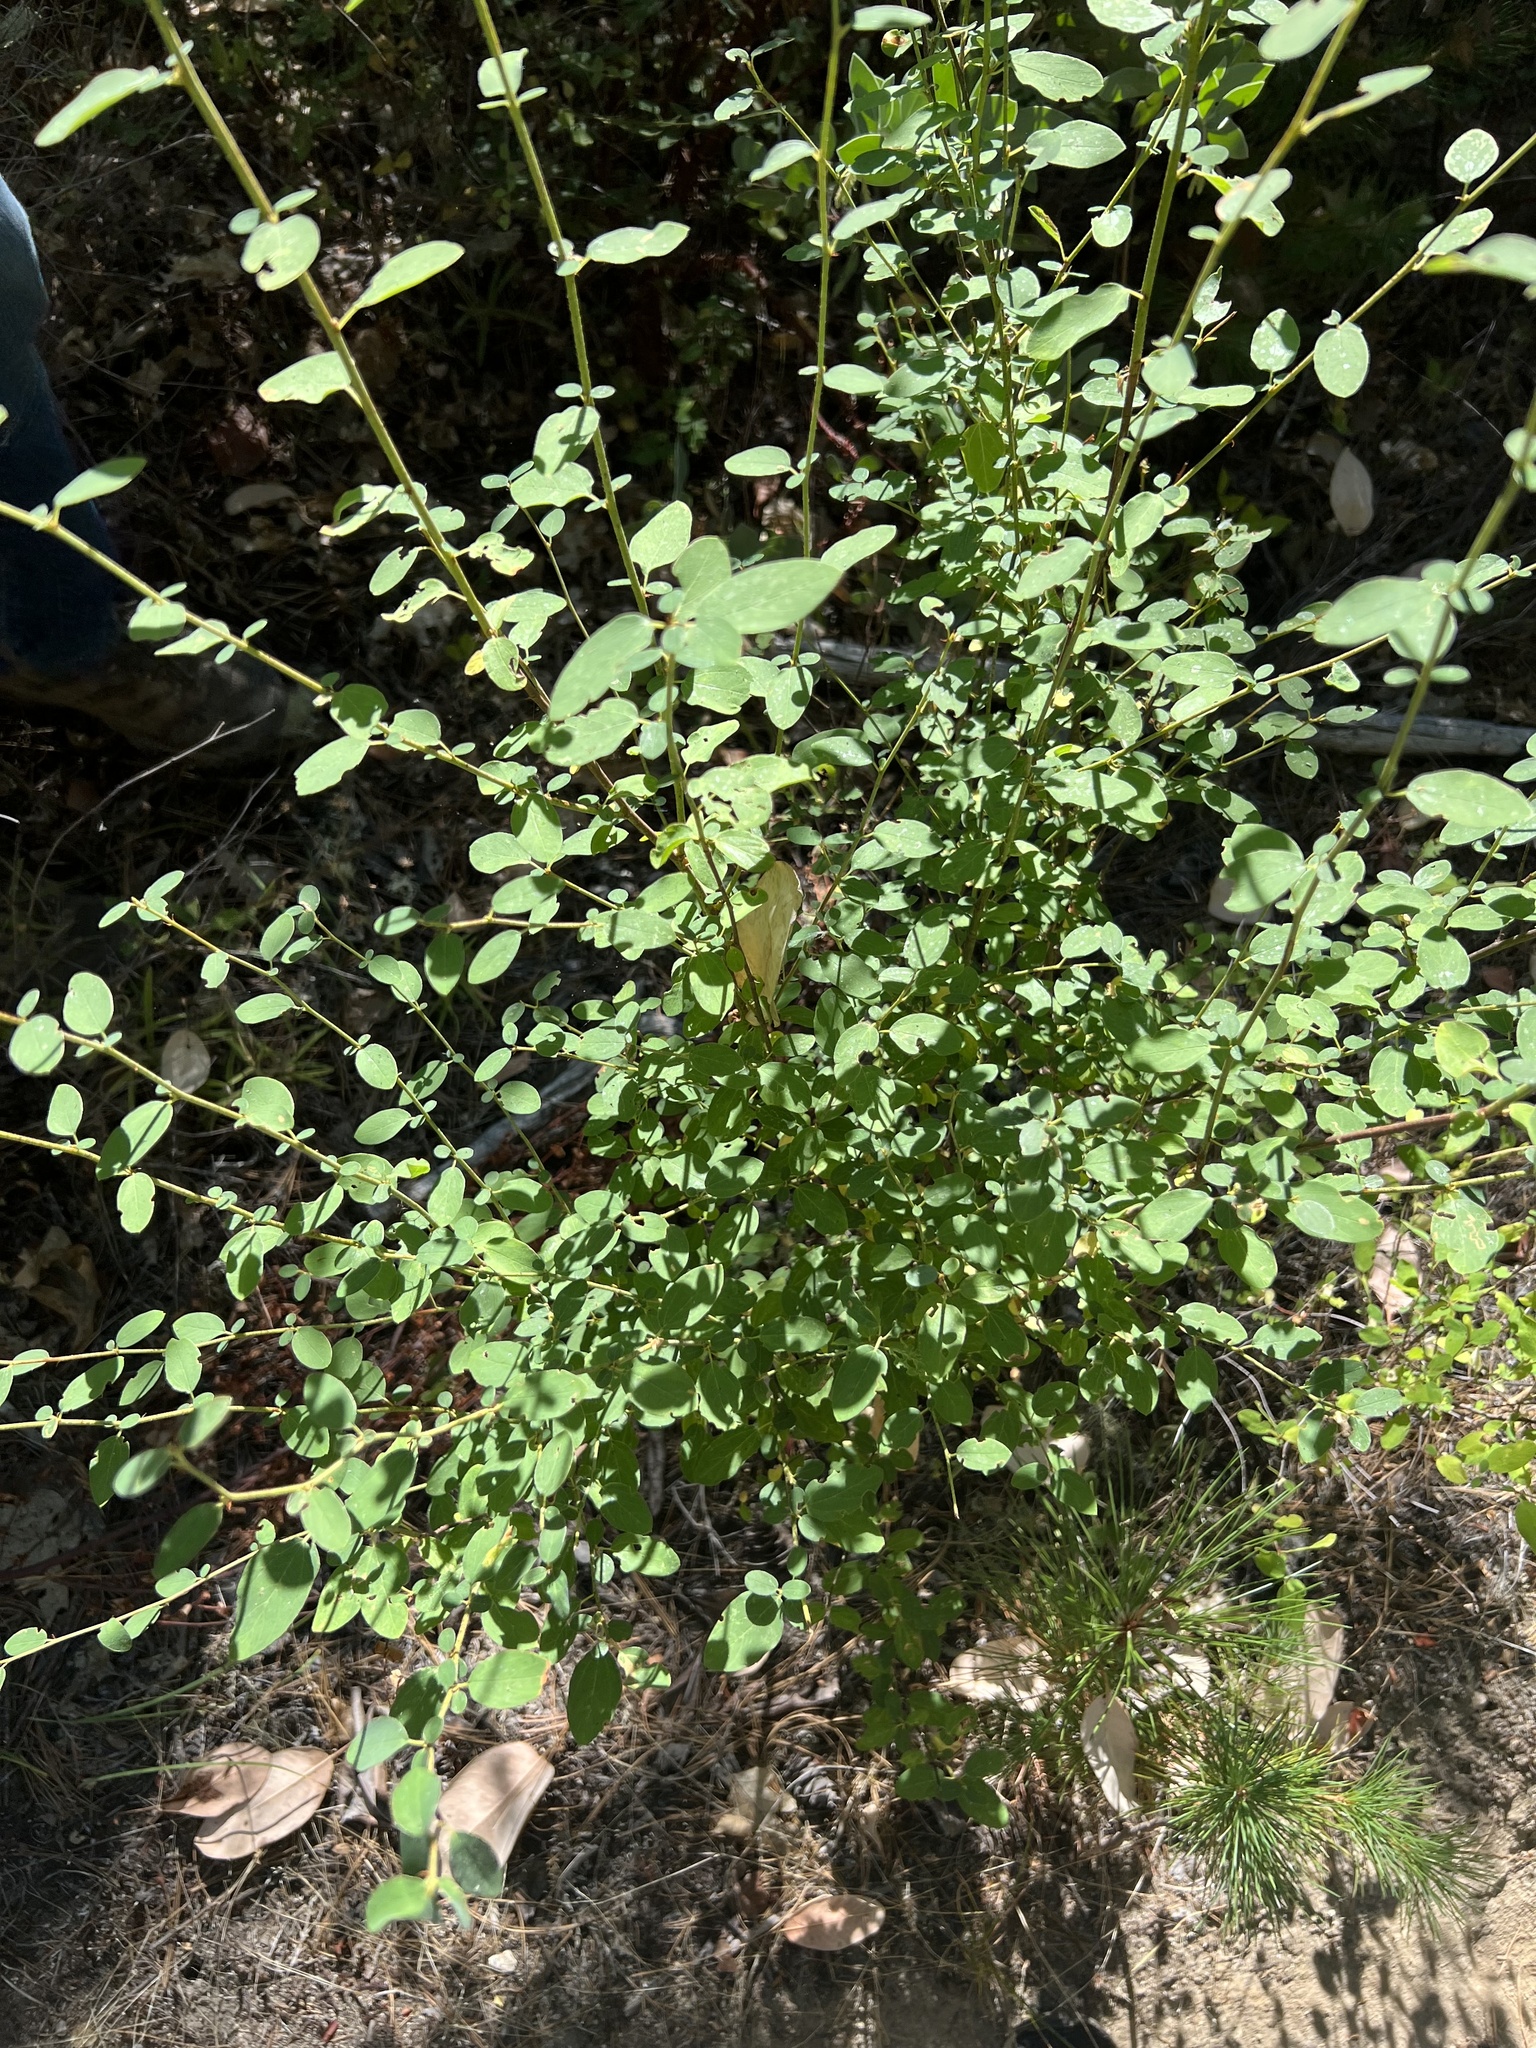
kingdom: Plantae
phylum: Tracheophyta
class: Magnoliopsida
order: Rosales
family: Rhamnaceae
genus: Ceanothus
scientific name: Ceanothus integerrimus
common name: Deerbrush ceanothus
